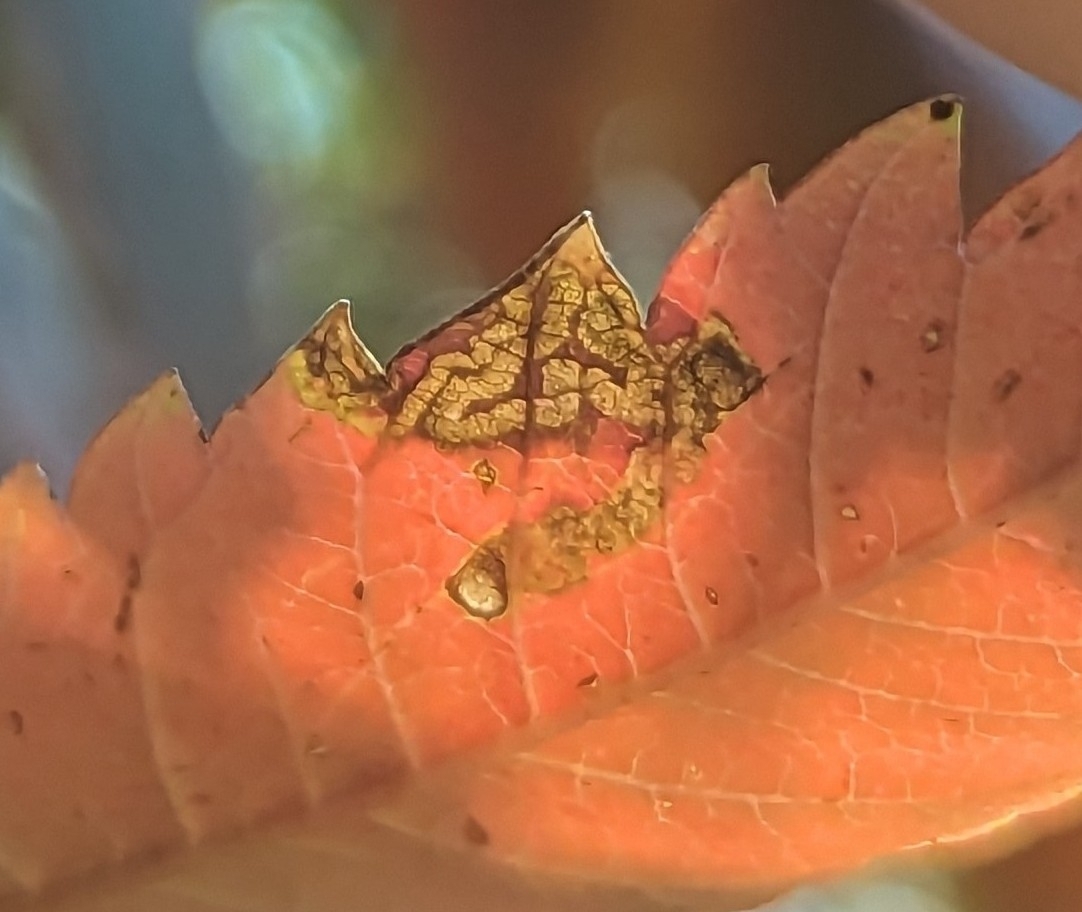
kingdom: Animalia
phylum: Arthropoda
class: Insecta
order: Lepidoptera
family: Nepticulidae
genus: Stigmella
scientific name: Stigmella intermedia
